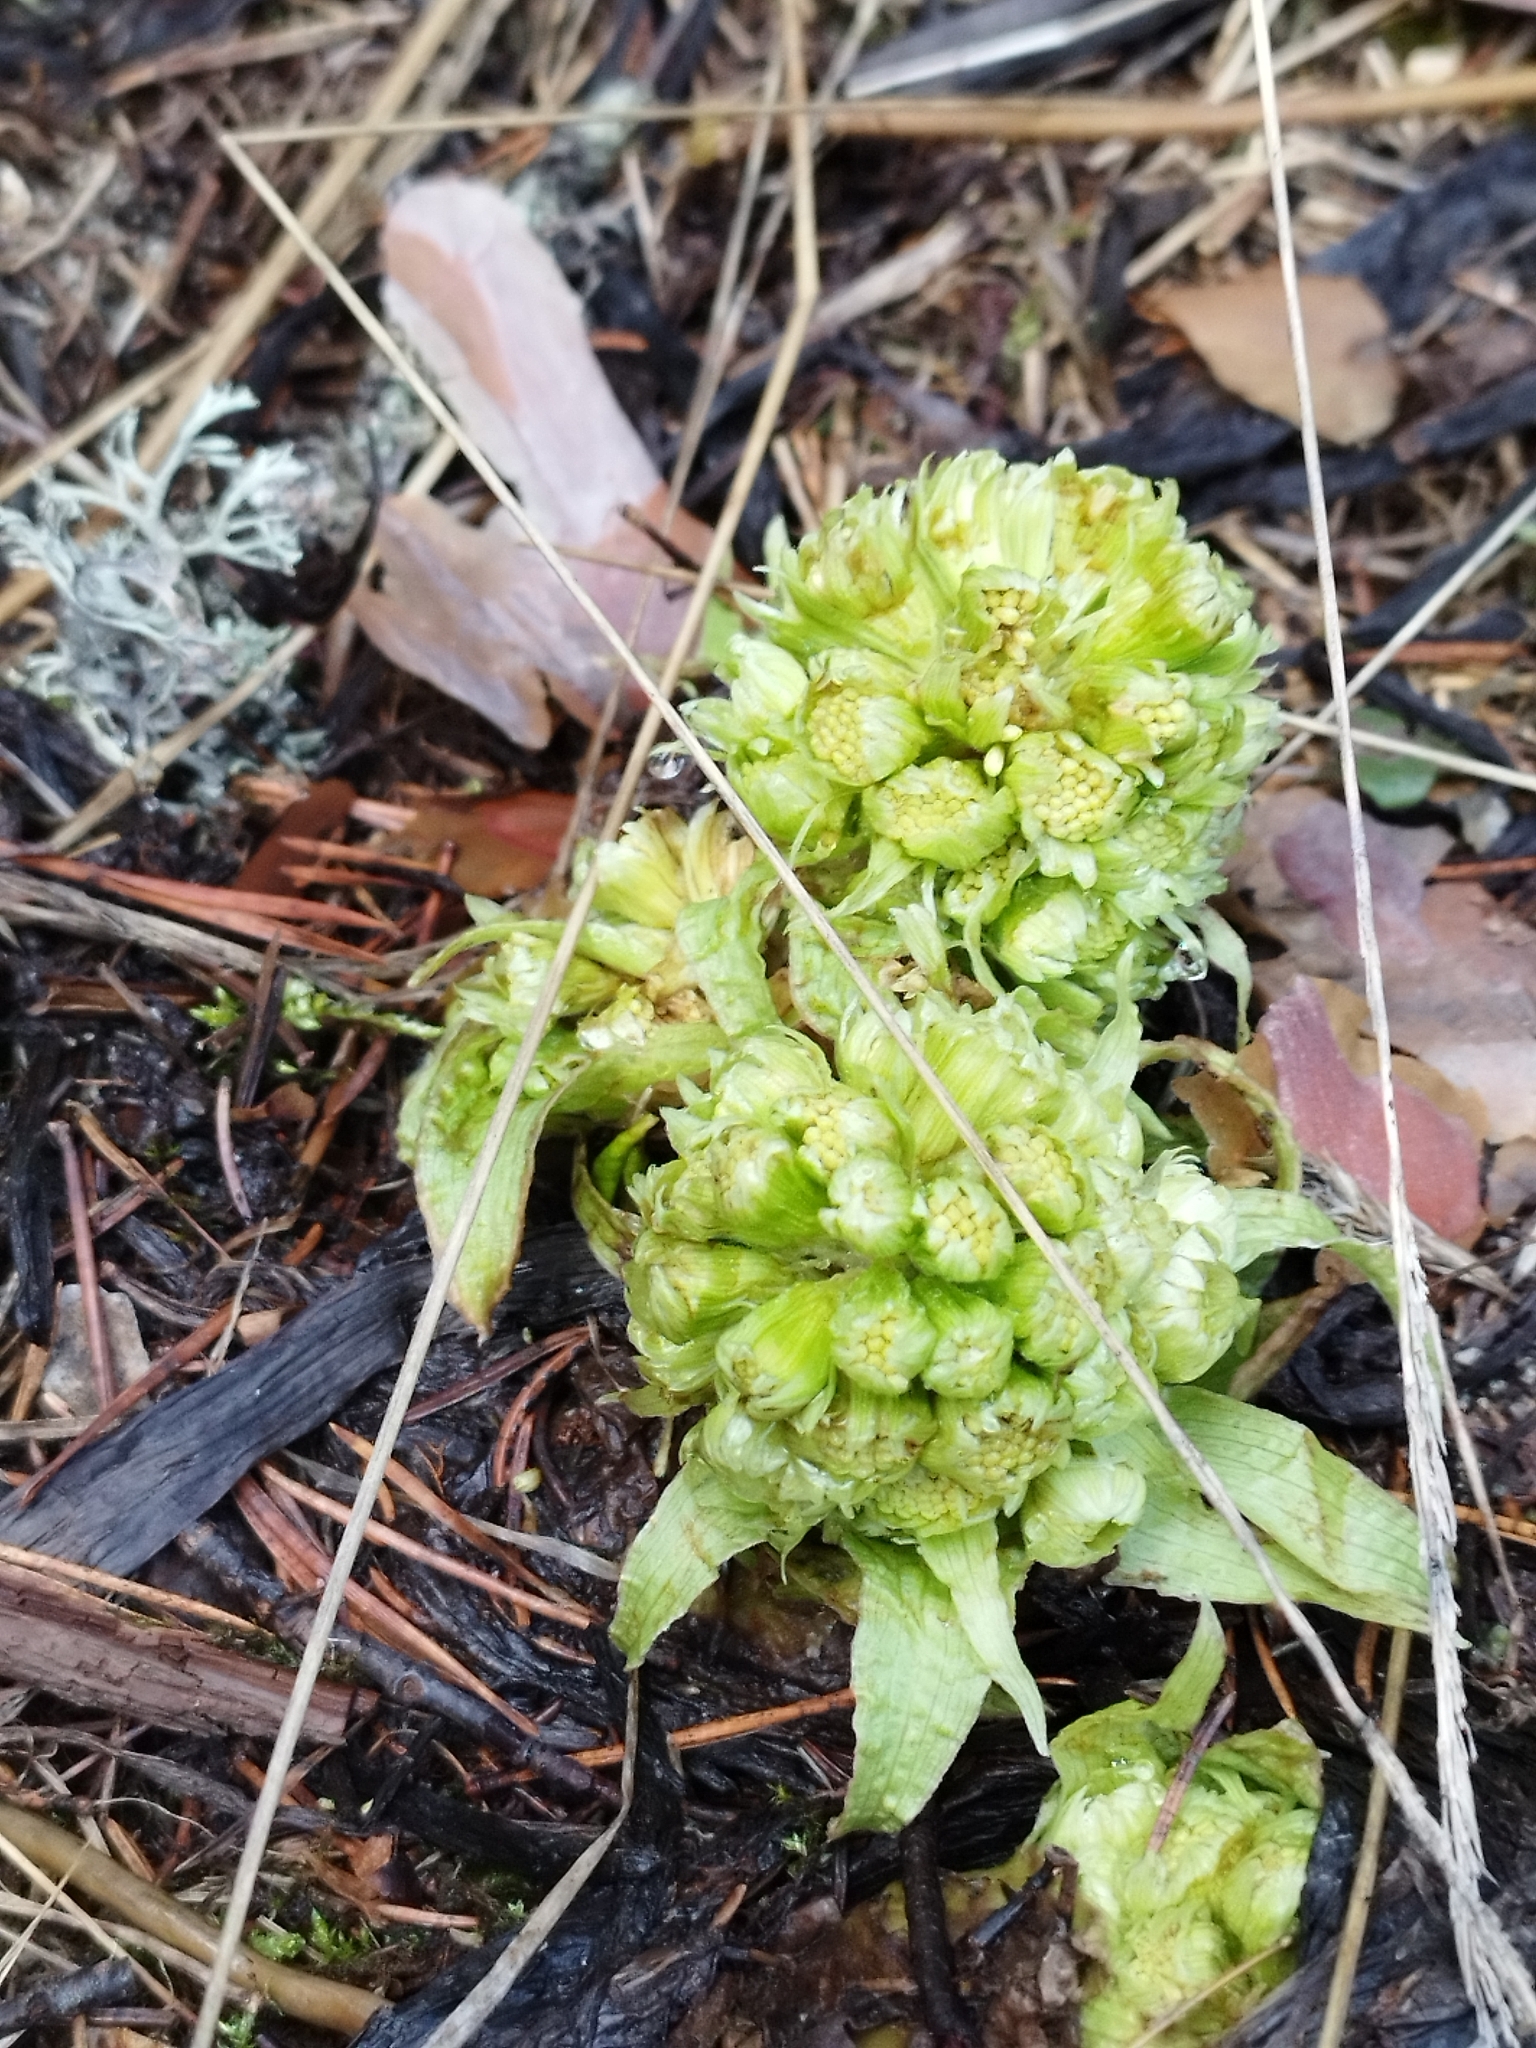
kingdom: Plantae
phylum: Tracheophyta
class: Magnoliopsida
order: Asterales
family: Asteraceae
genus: Petasites
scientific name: Petasites albus
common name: White butterbur
